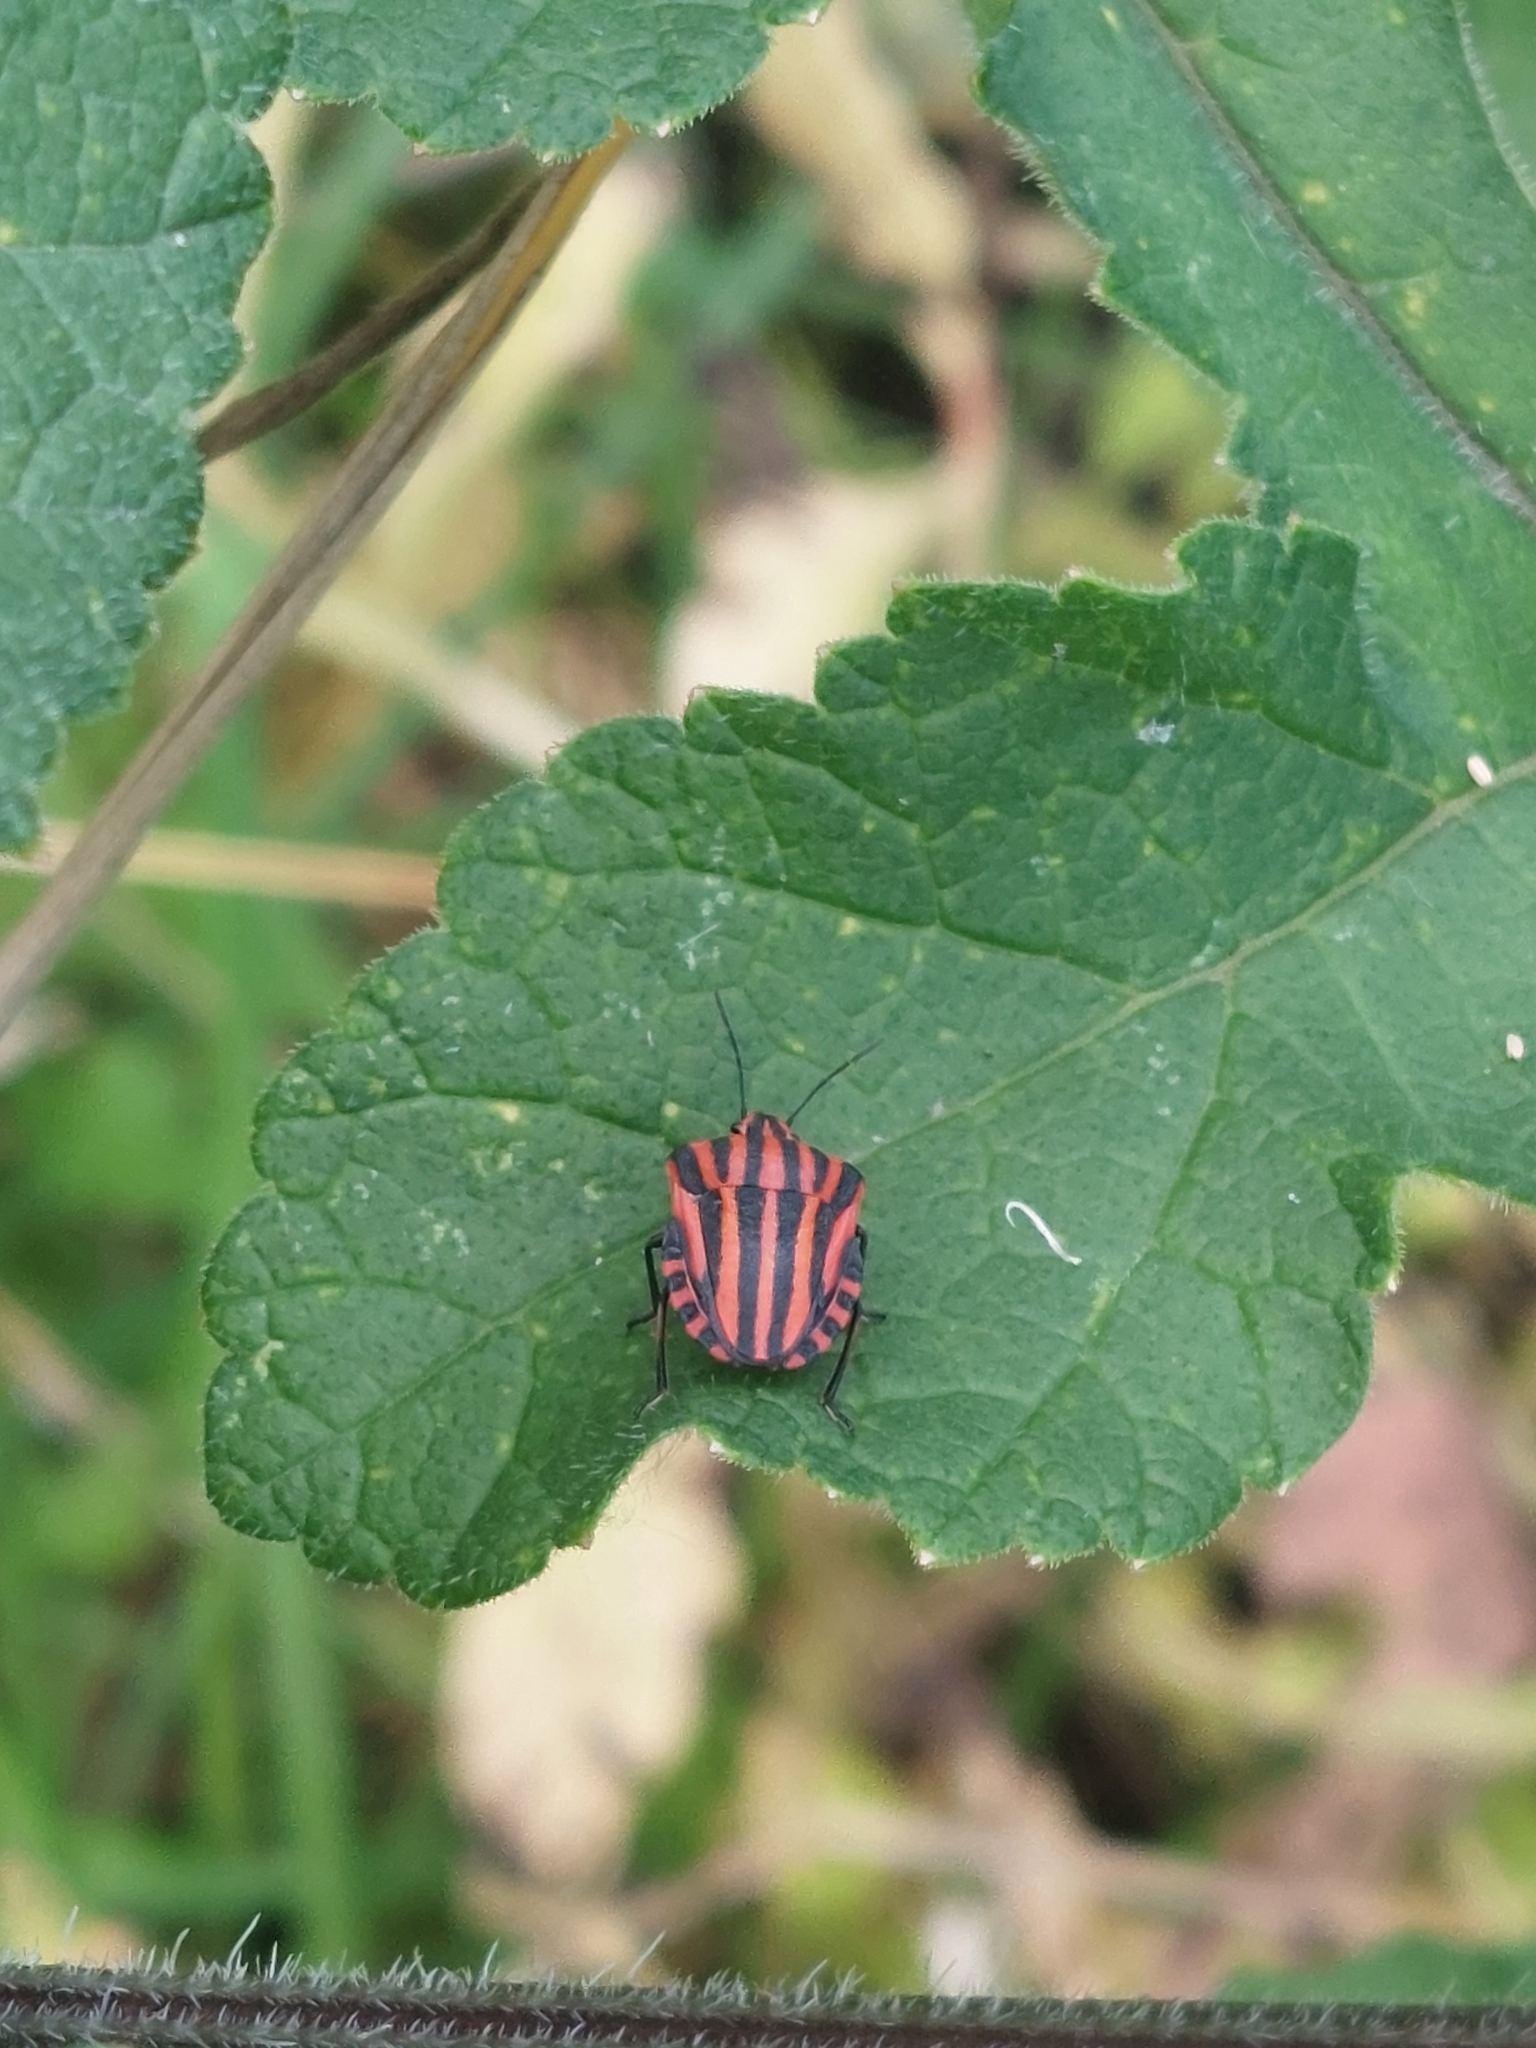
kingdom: Animalia
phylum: Arthropoda
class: Insecta
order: Hemiptera
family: Pentatomidae
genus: Graphosoma
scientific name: Graphosoma italicum
